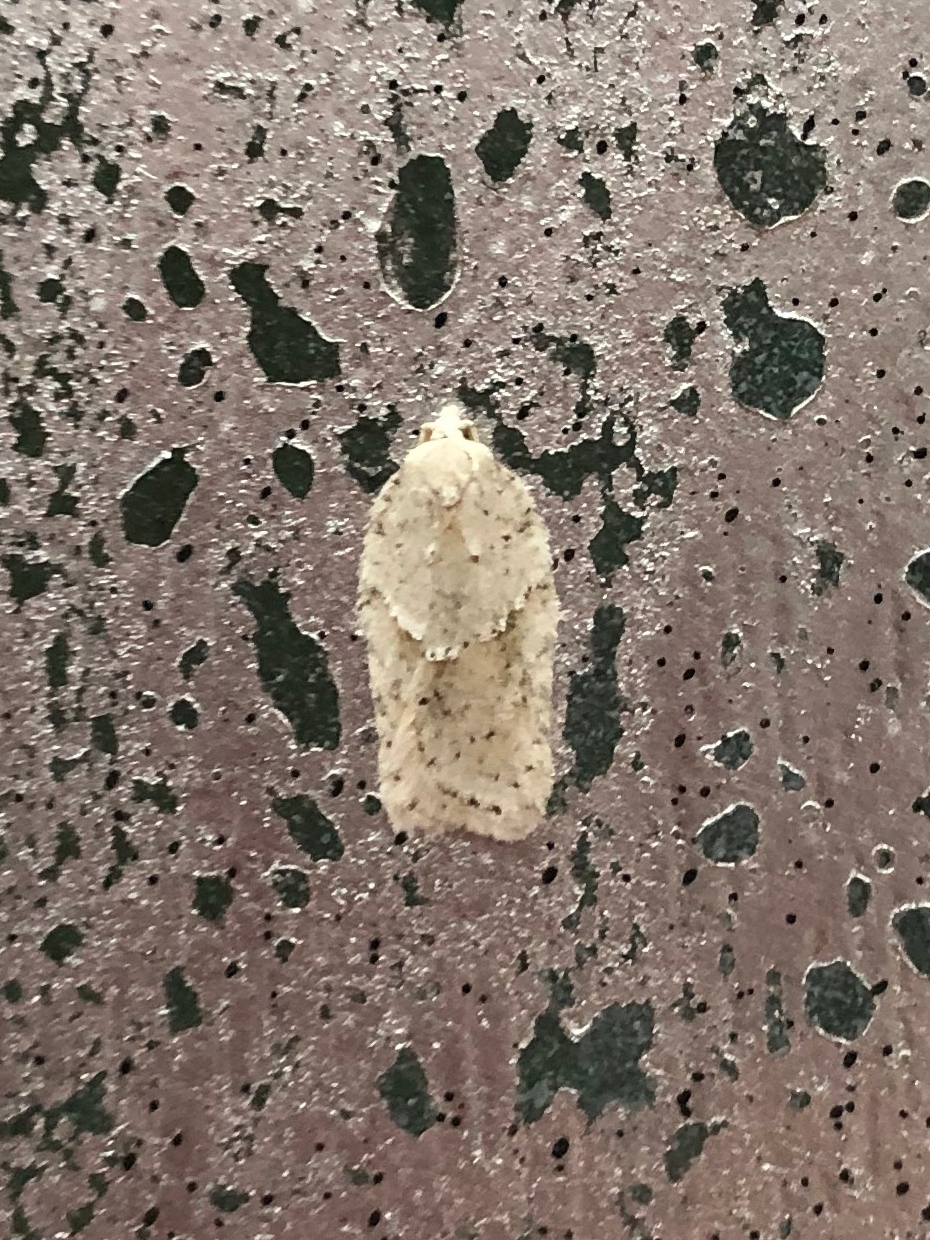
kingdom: Animalia
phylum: Arthropoda
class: Insecta
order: Lepidoptera
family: Tortricidae
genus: Acleris
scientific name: Acleris logiana
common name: Grey birch button
